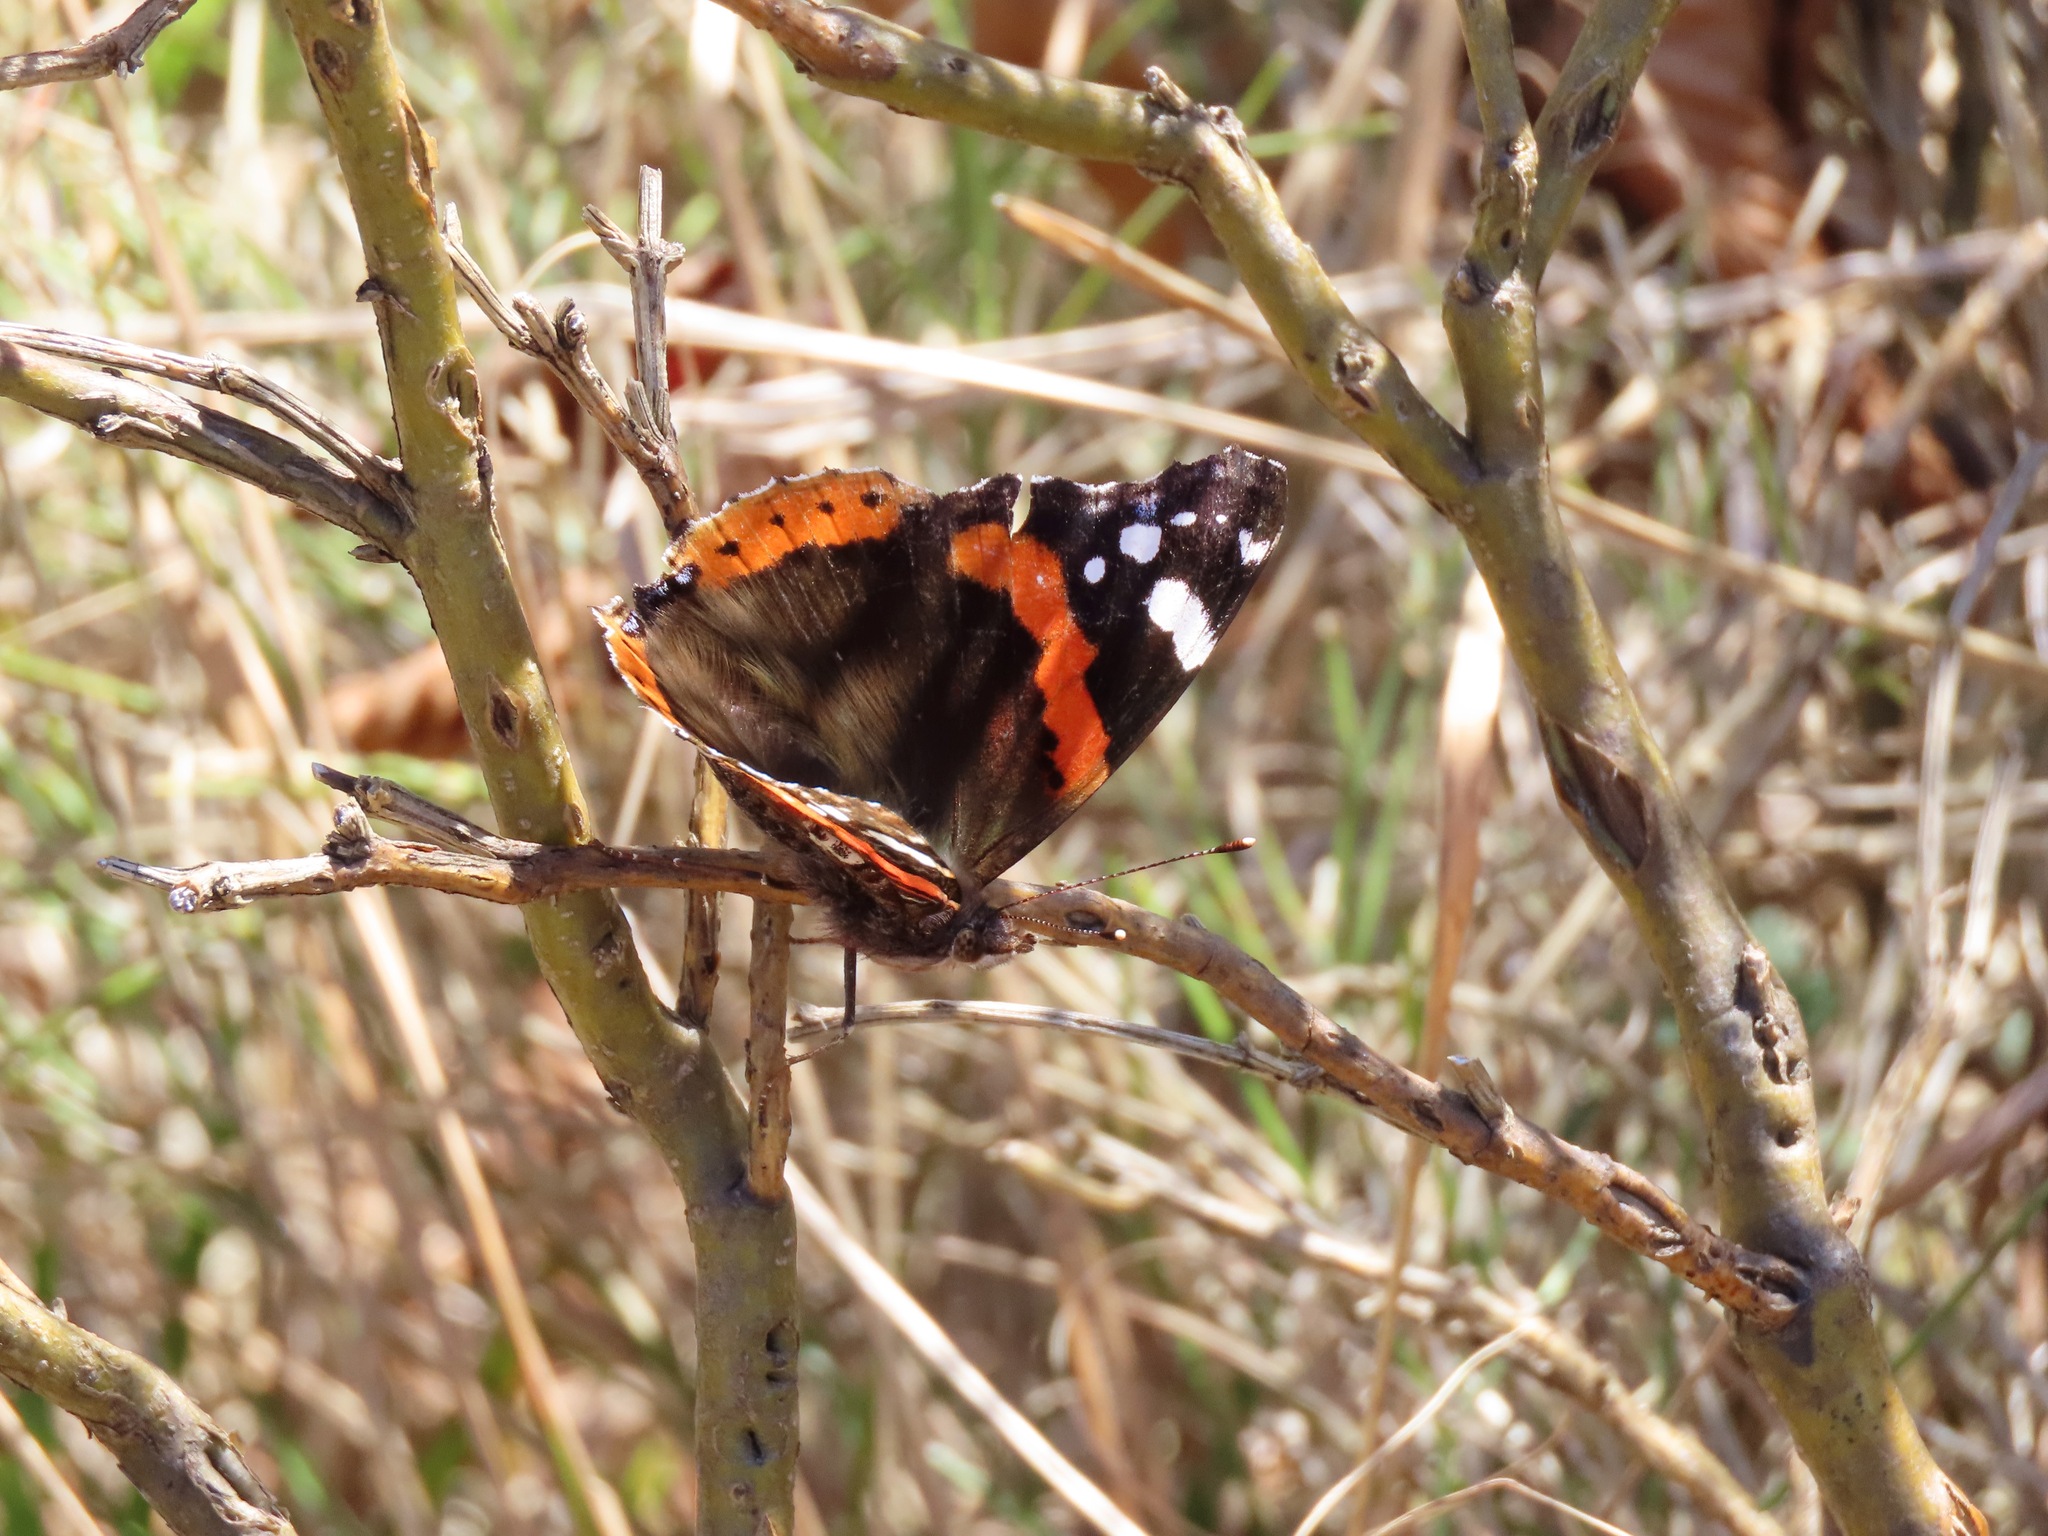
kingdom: Animalia
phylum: Arthropoda
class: Insecta
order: Lepidoptera
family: Nymphalidae
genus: Vanessa
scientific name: Vanessa atalanta
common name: Red admiral
